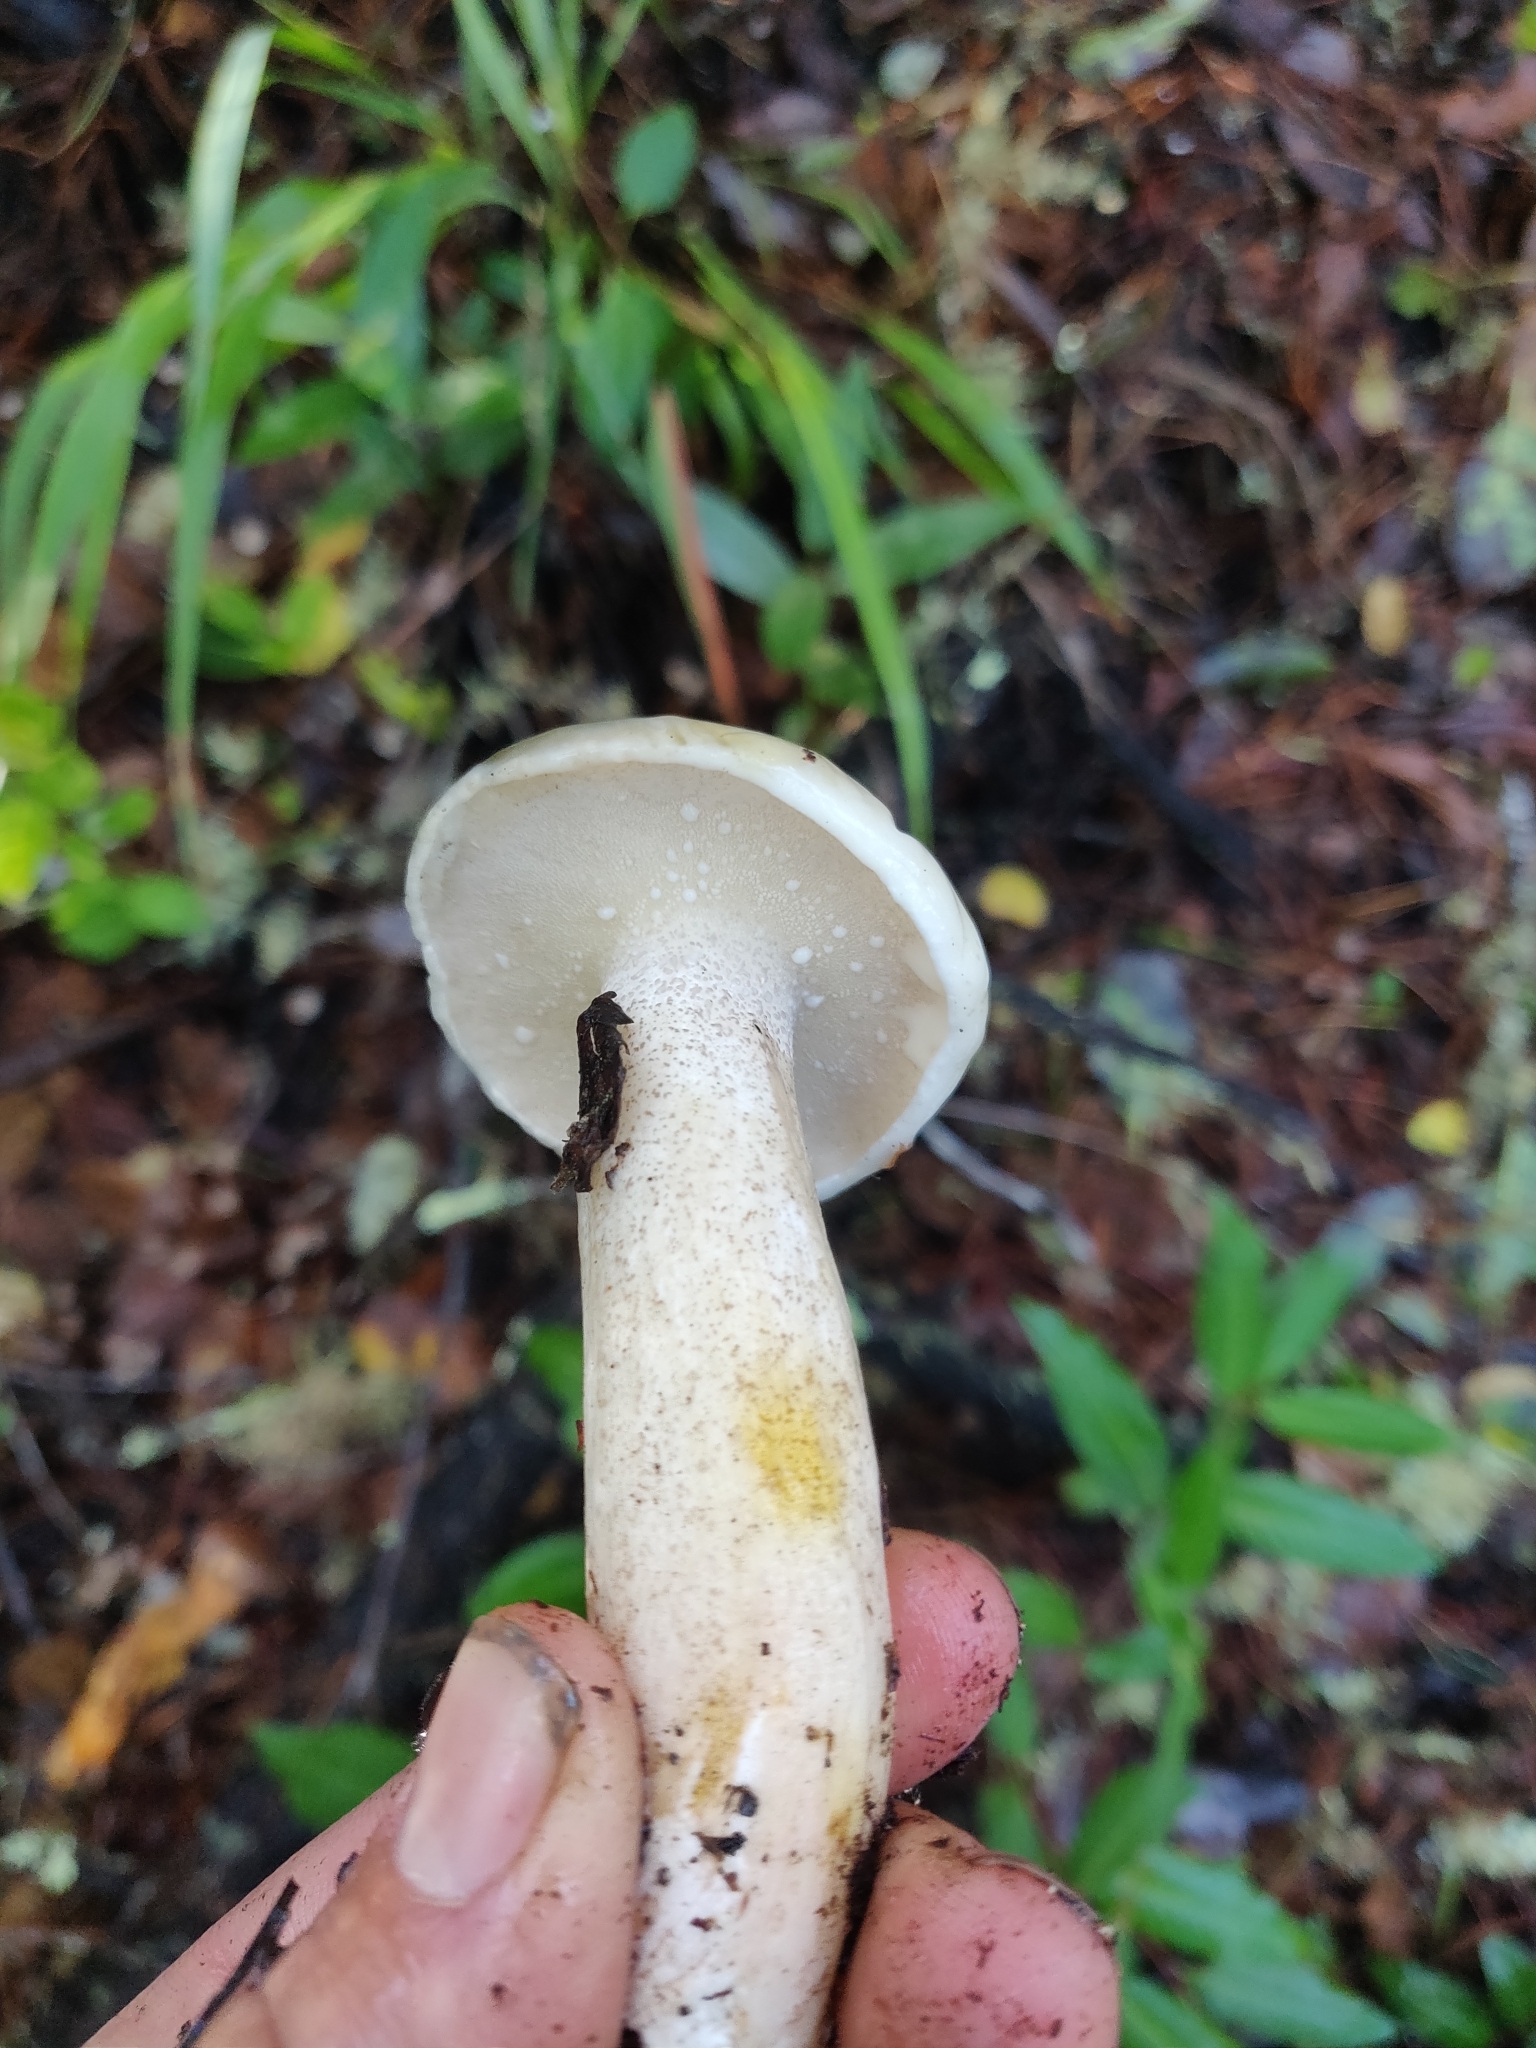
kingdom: Fungi
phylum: Basidiomycota
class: Agaricomycetes
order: Boletales
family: Suillaceae
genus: Suillus
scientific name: Suillus pungens
